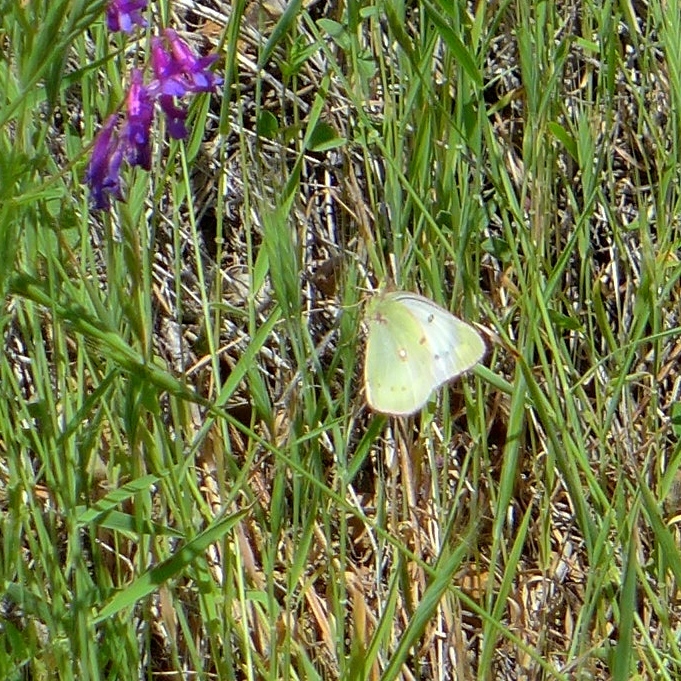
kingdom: Animalia
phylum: Arthropoda
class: Insecta
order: Lepidoptera
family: Pieridae
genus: Colias
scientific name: Colias eurytheme
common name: Alfalfa butterfly
